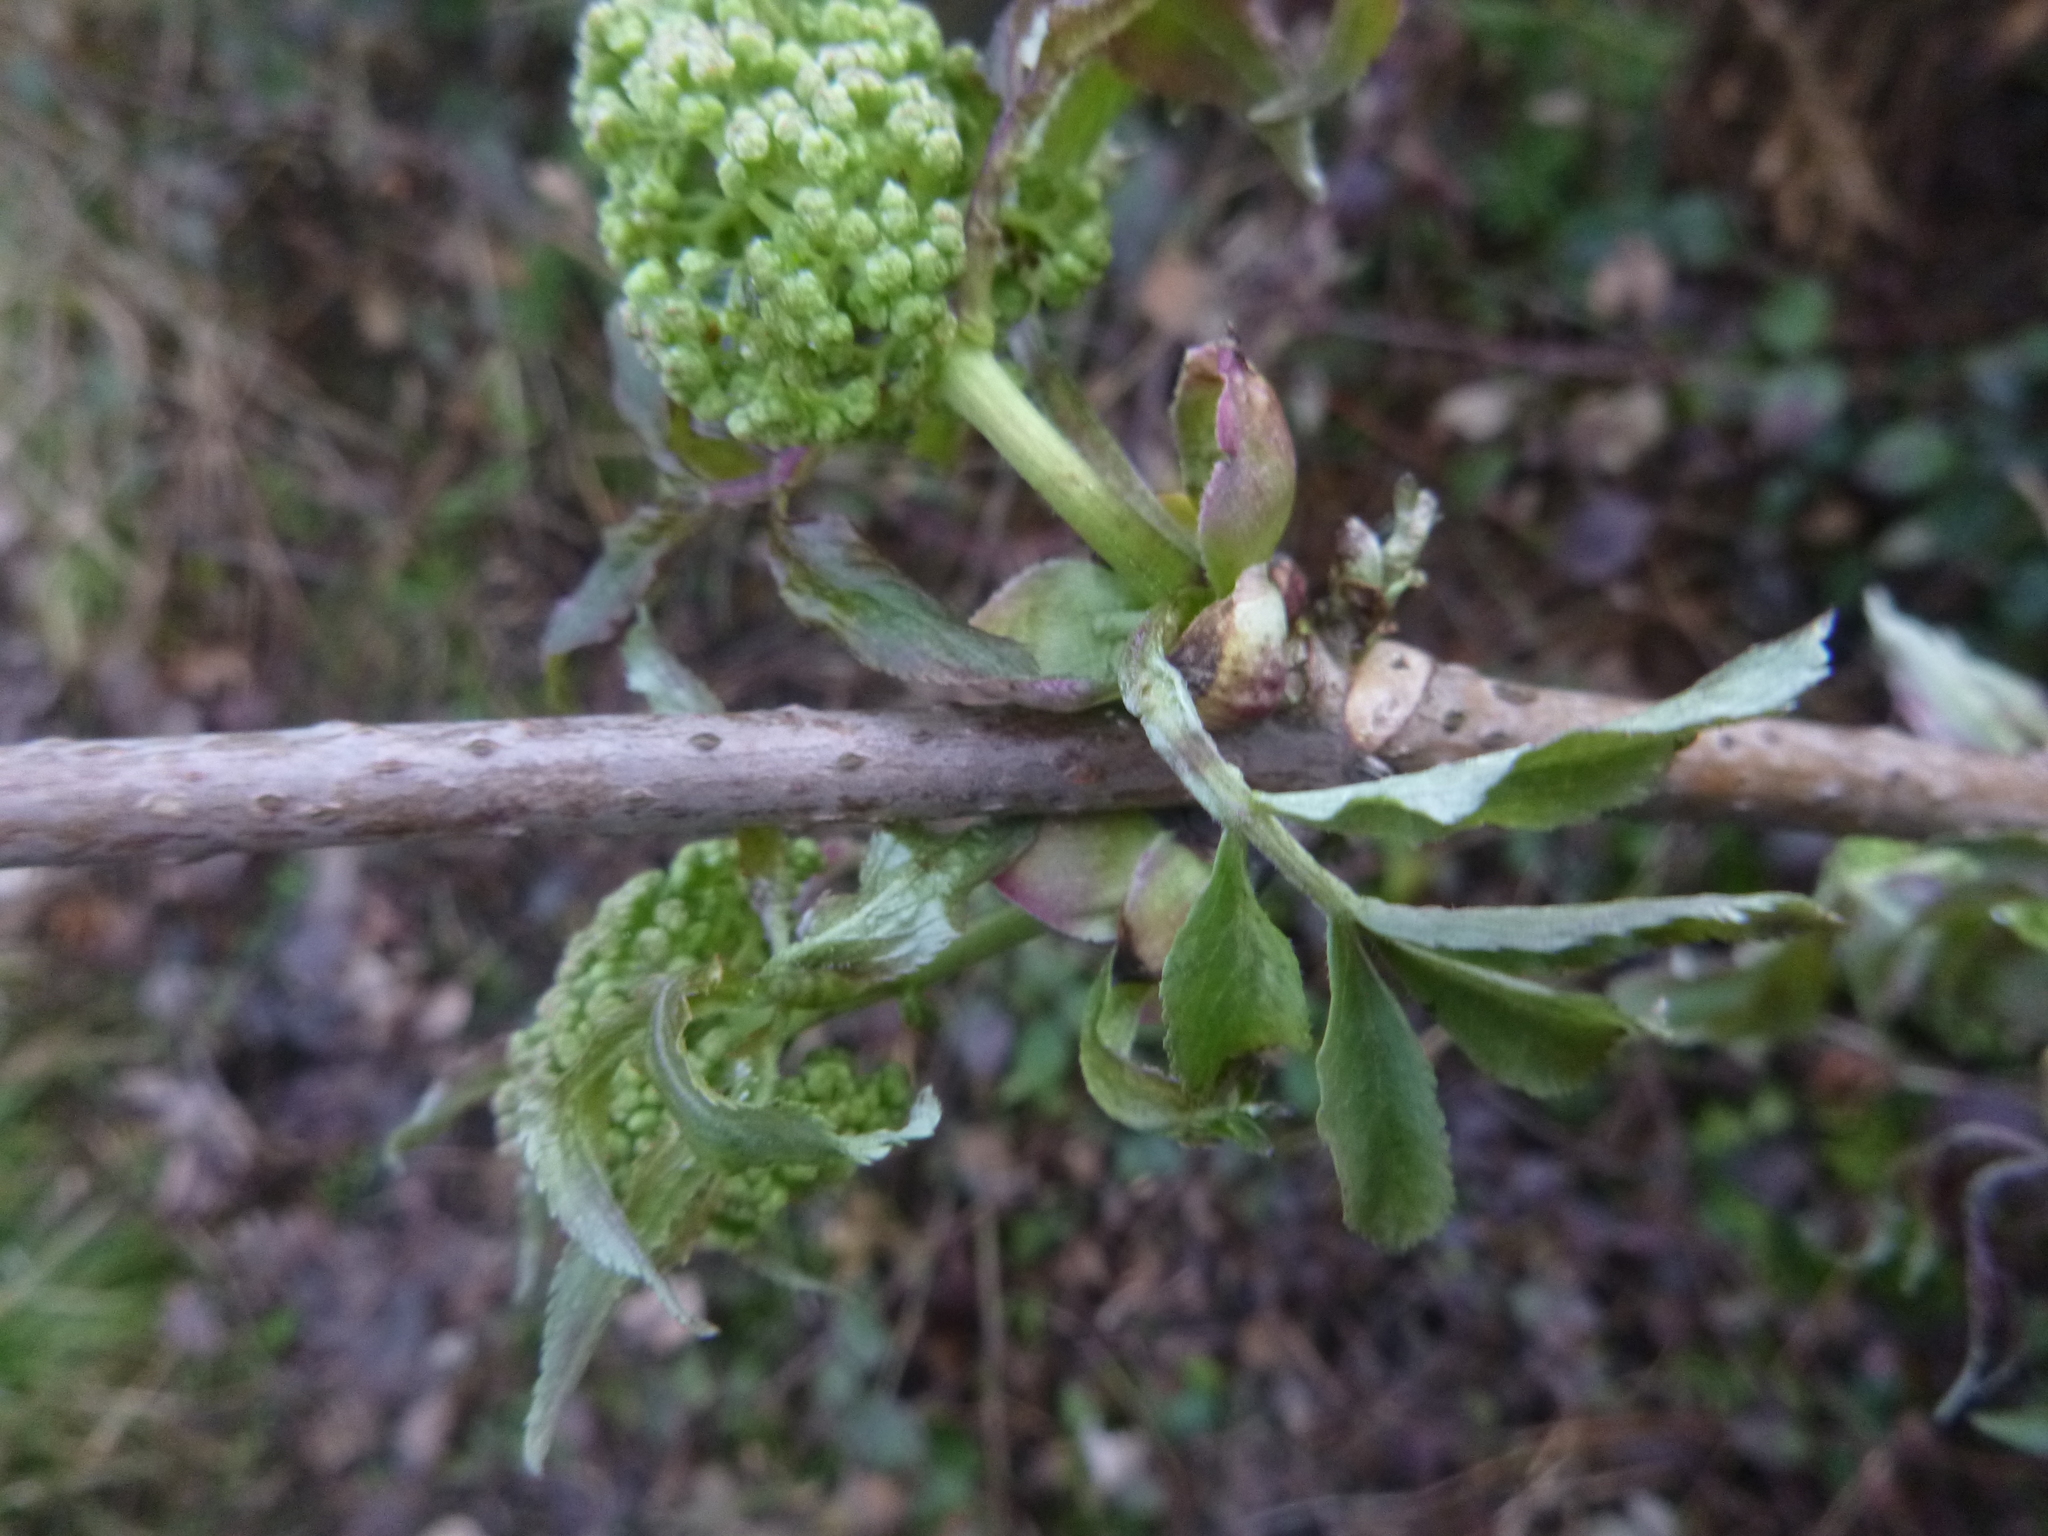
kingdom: Plantae
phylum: Tracheophyta
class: Magnoliopsida
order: Dipsacales
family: Viburnaceae
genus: Sambucus
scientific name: Sambucus racemosa
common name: Red-berried elder
